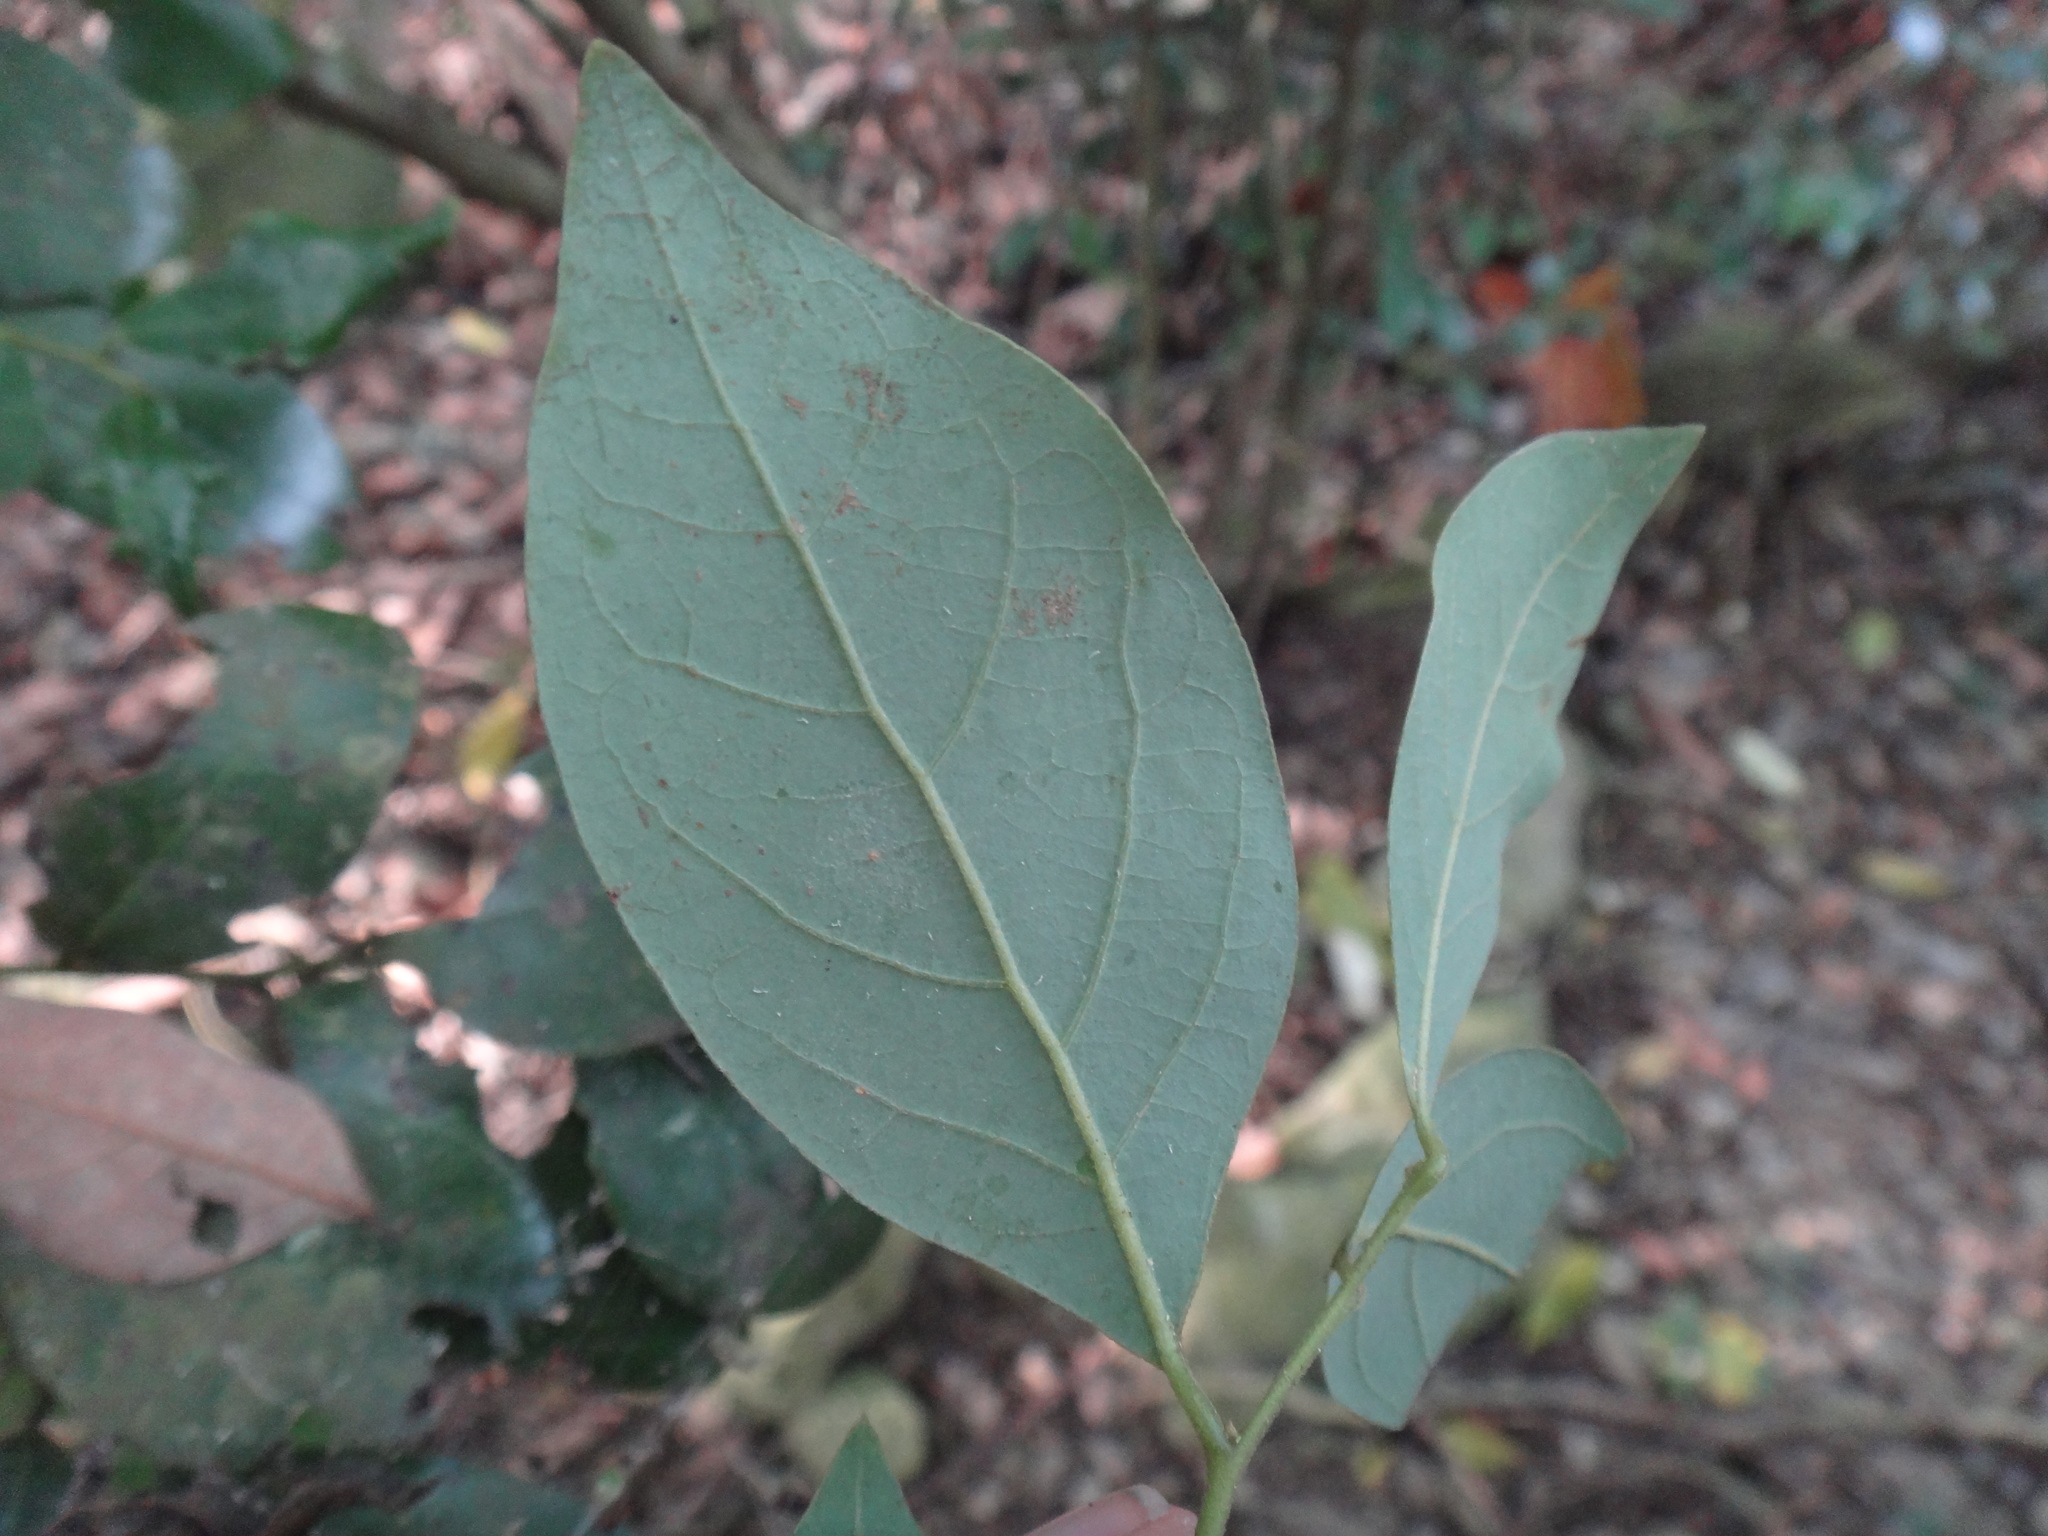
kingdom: Plantae
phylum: Tracheophyta
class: Magnoliopsida
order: Laurales
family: Lauraceae
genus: Lindera
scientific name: Lindera akoensis
